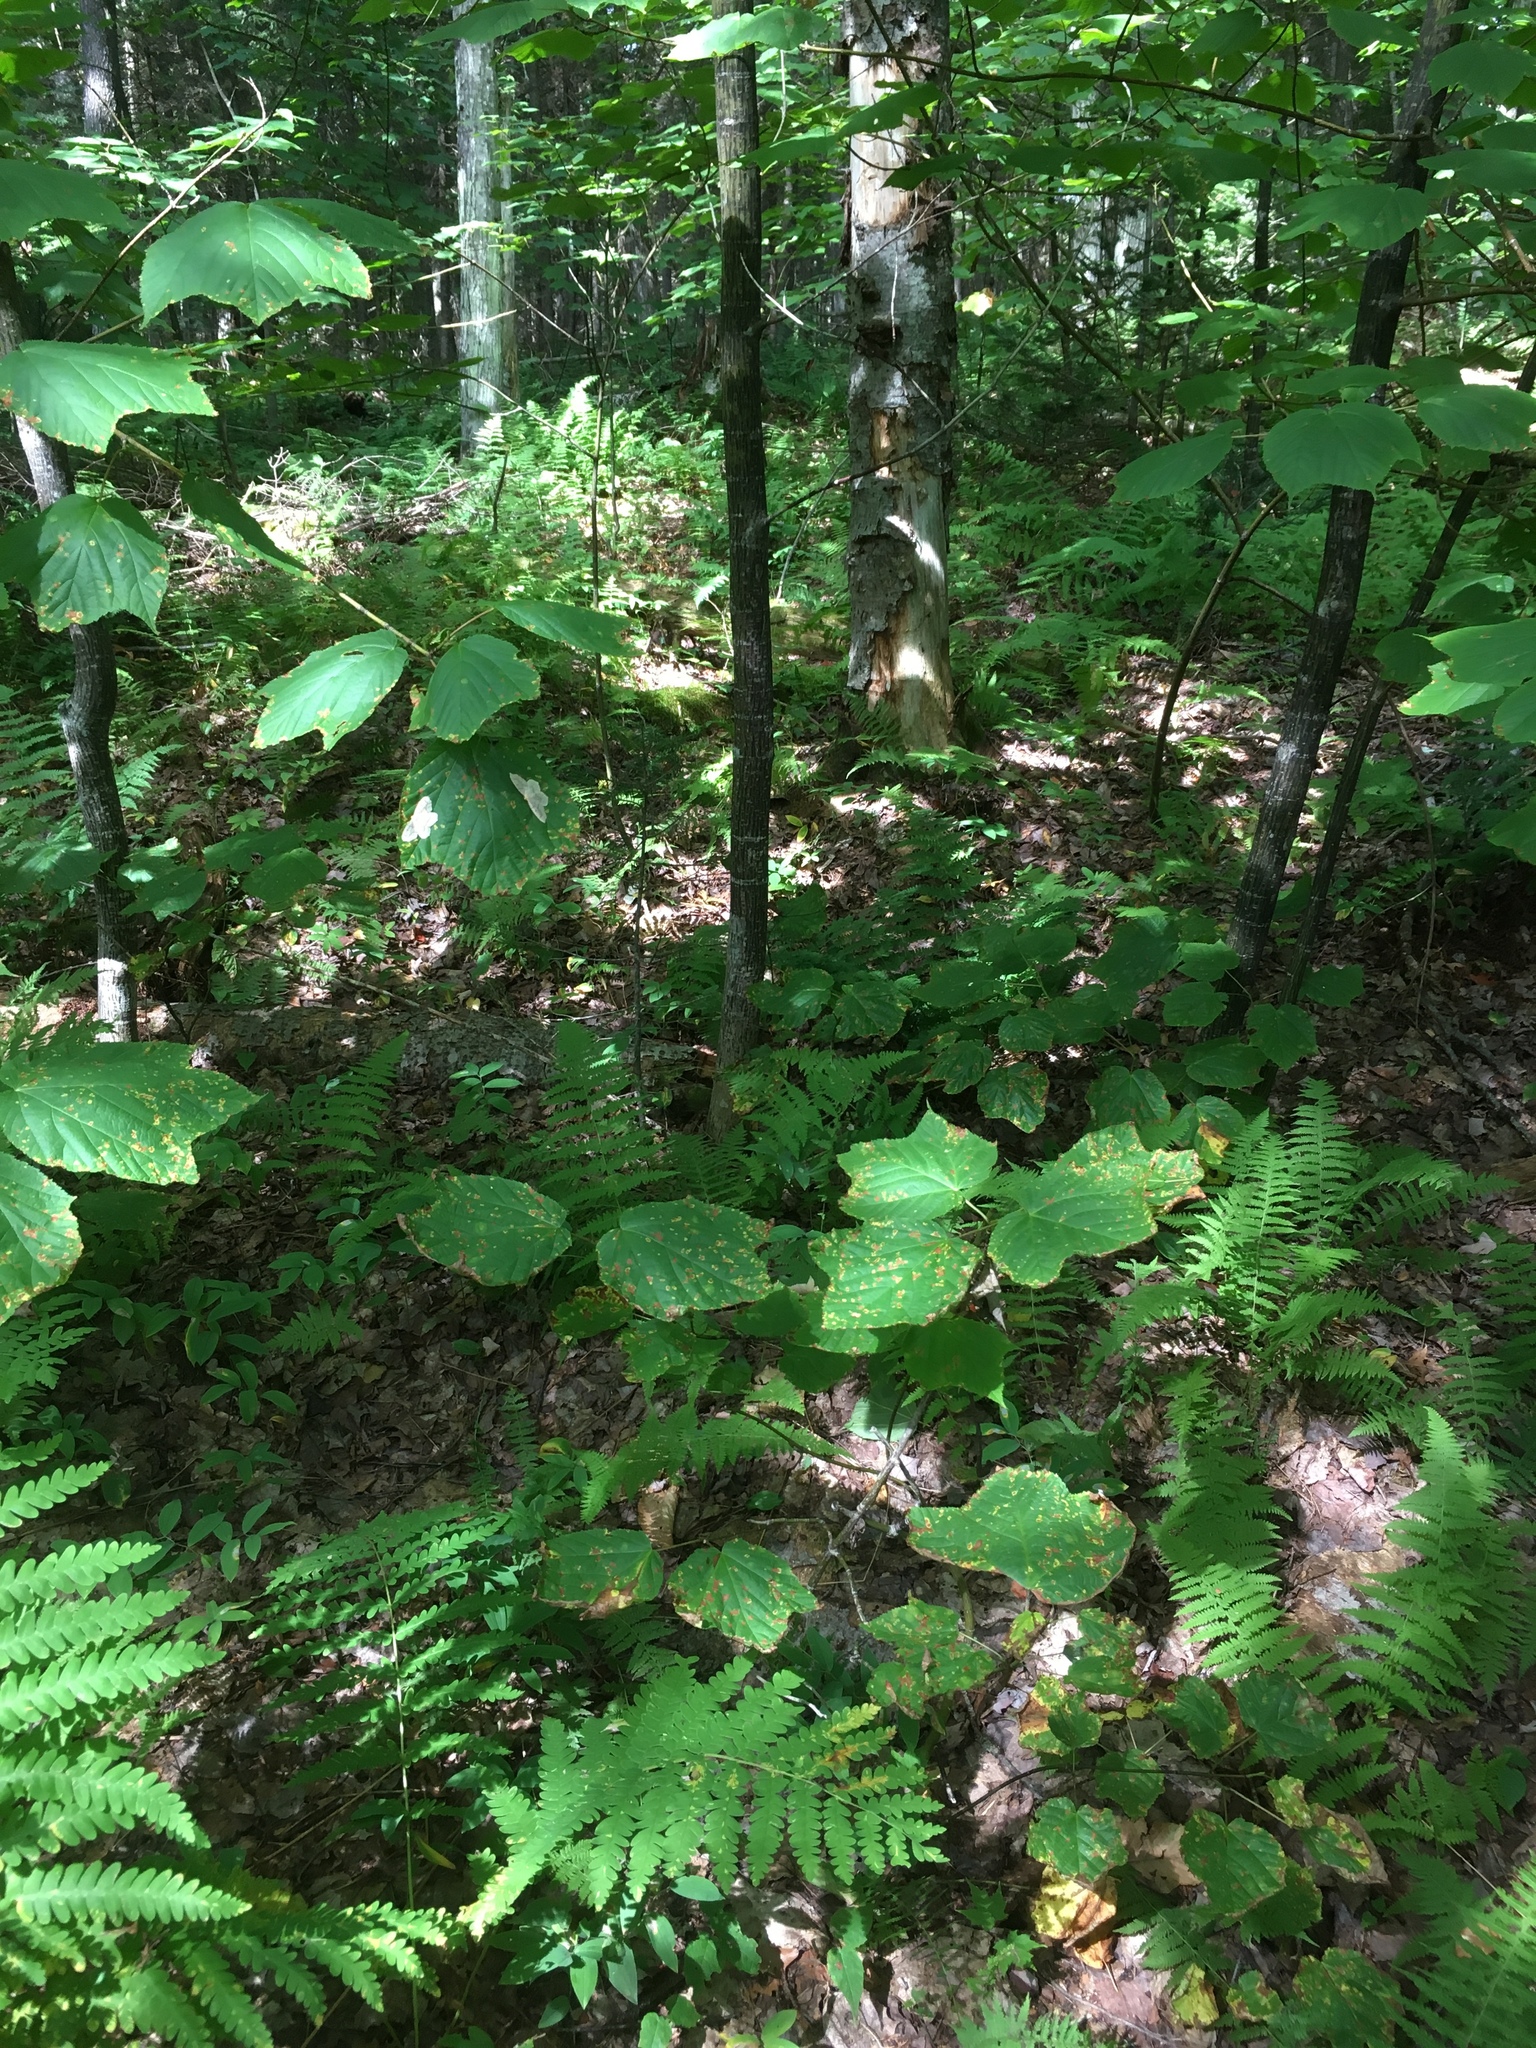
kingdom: Plantae
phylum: Tracheophyta
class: Magnoliopsida
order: Sapindales
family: Sapindaceae
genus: Acer
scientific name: Acer pensylvanicum
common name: Moosewood
